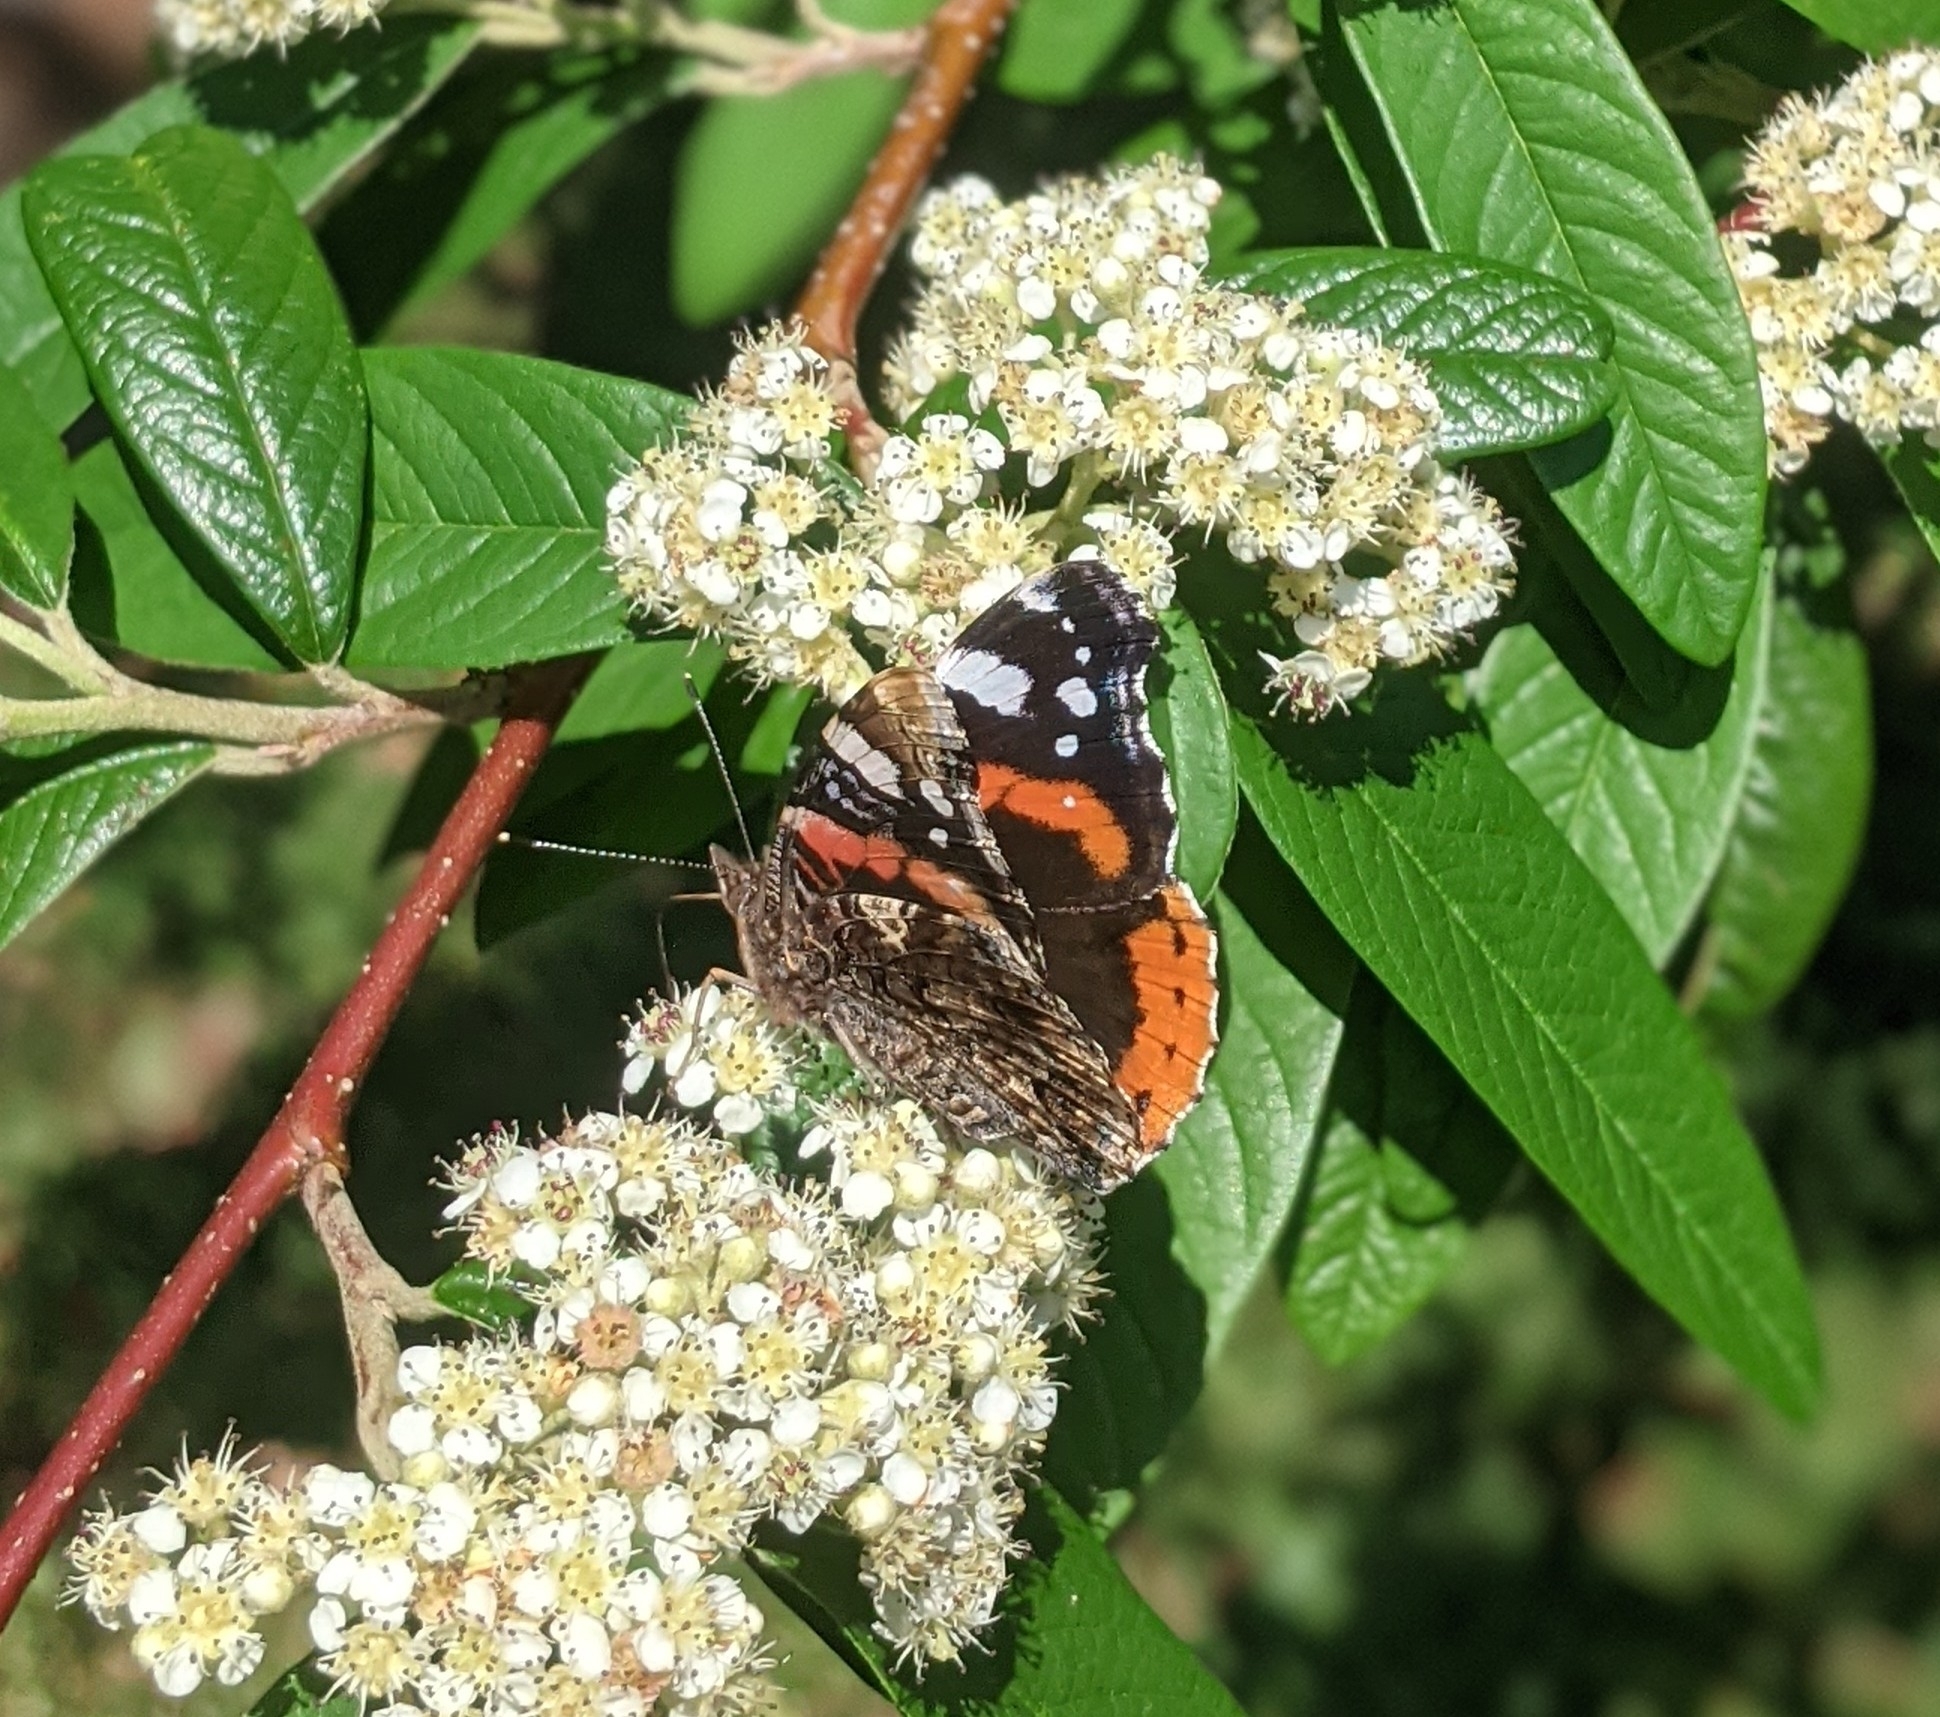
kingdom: Animalia
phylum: Arthropoda
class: Insecta
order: Lepidoptera
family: Nymphalidae
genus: Vanessa
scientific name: Vanessa atalanta
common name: Red admiral
